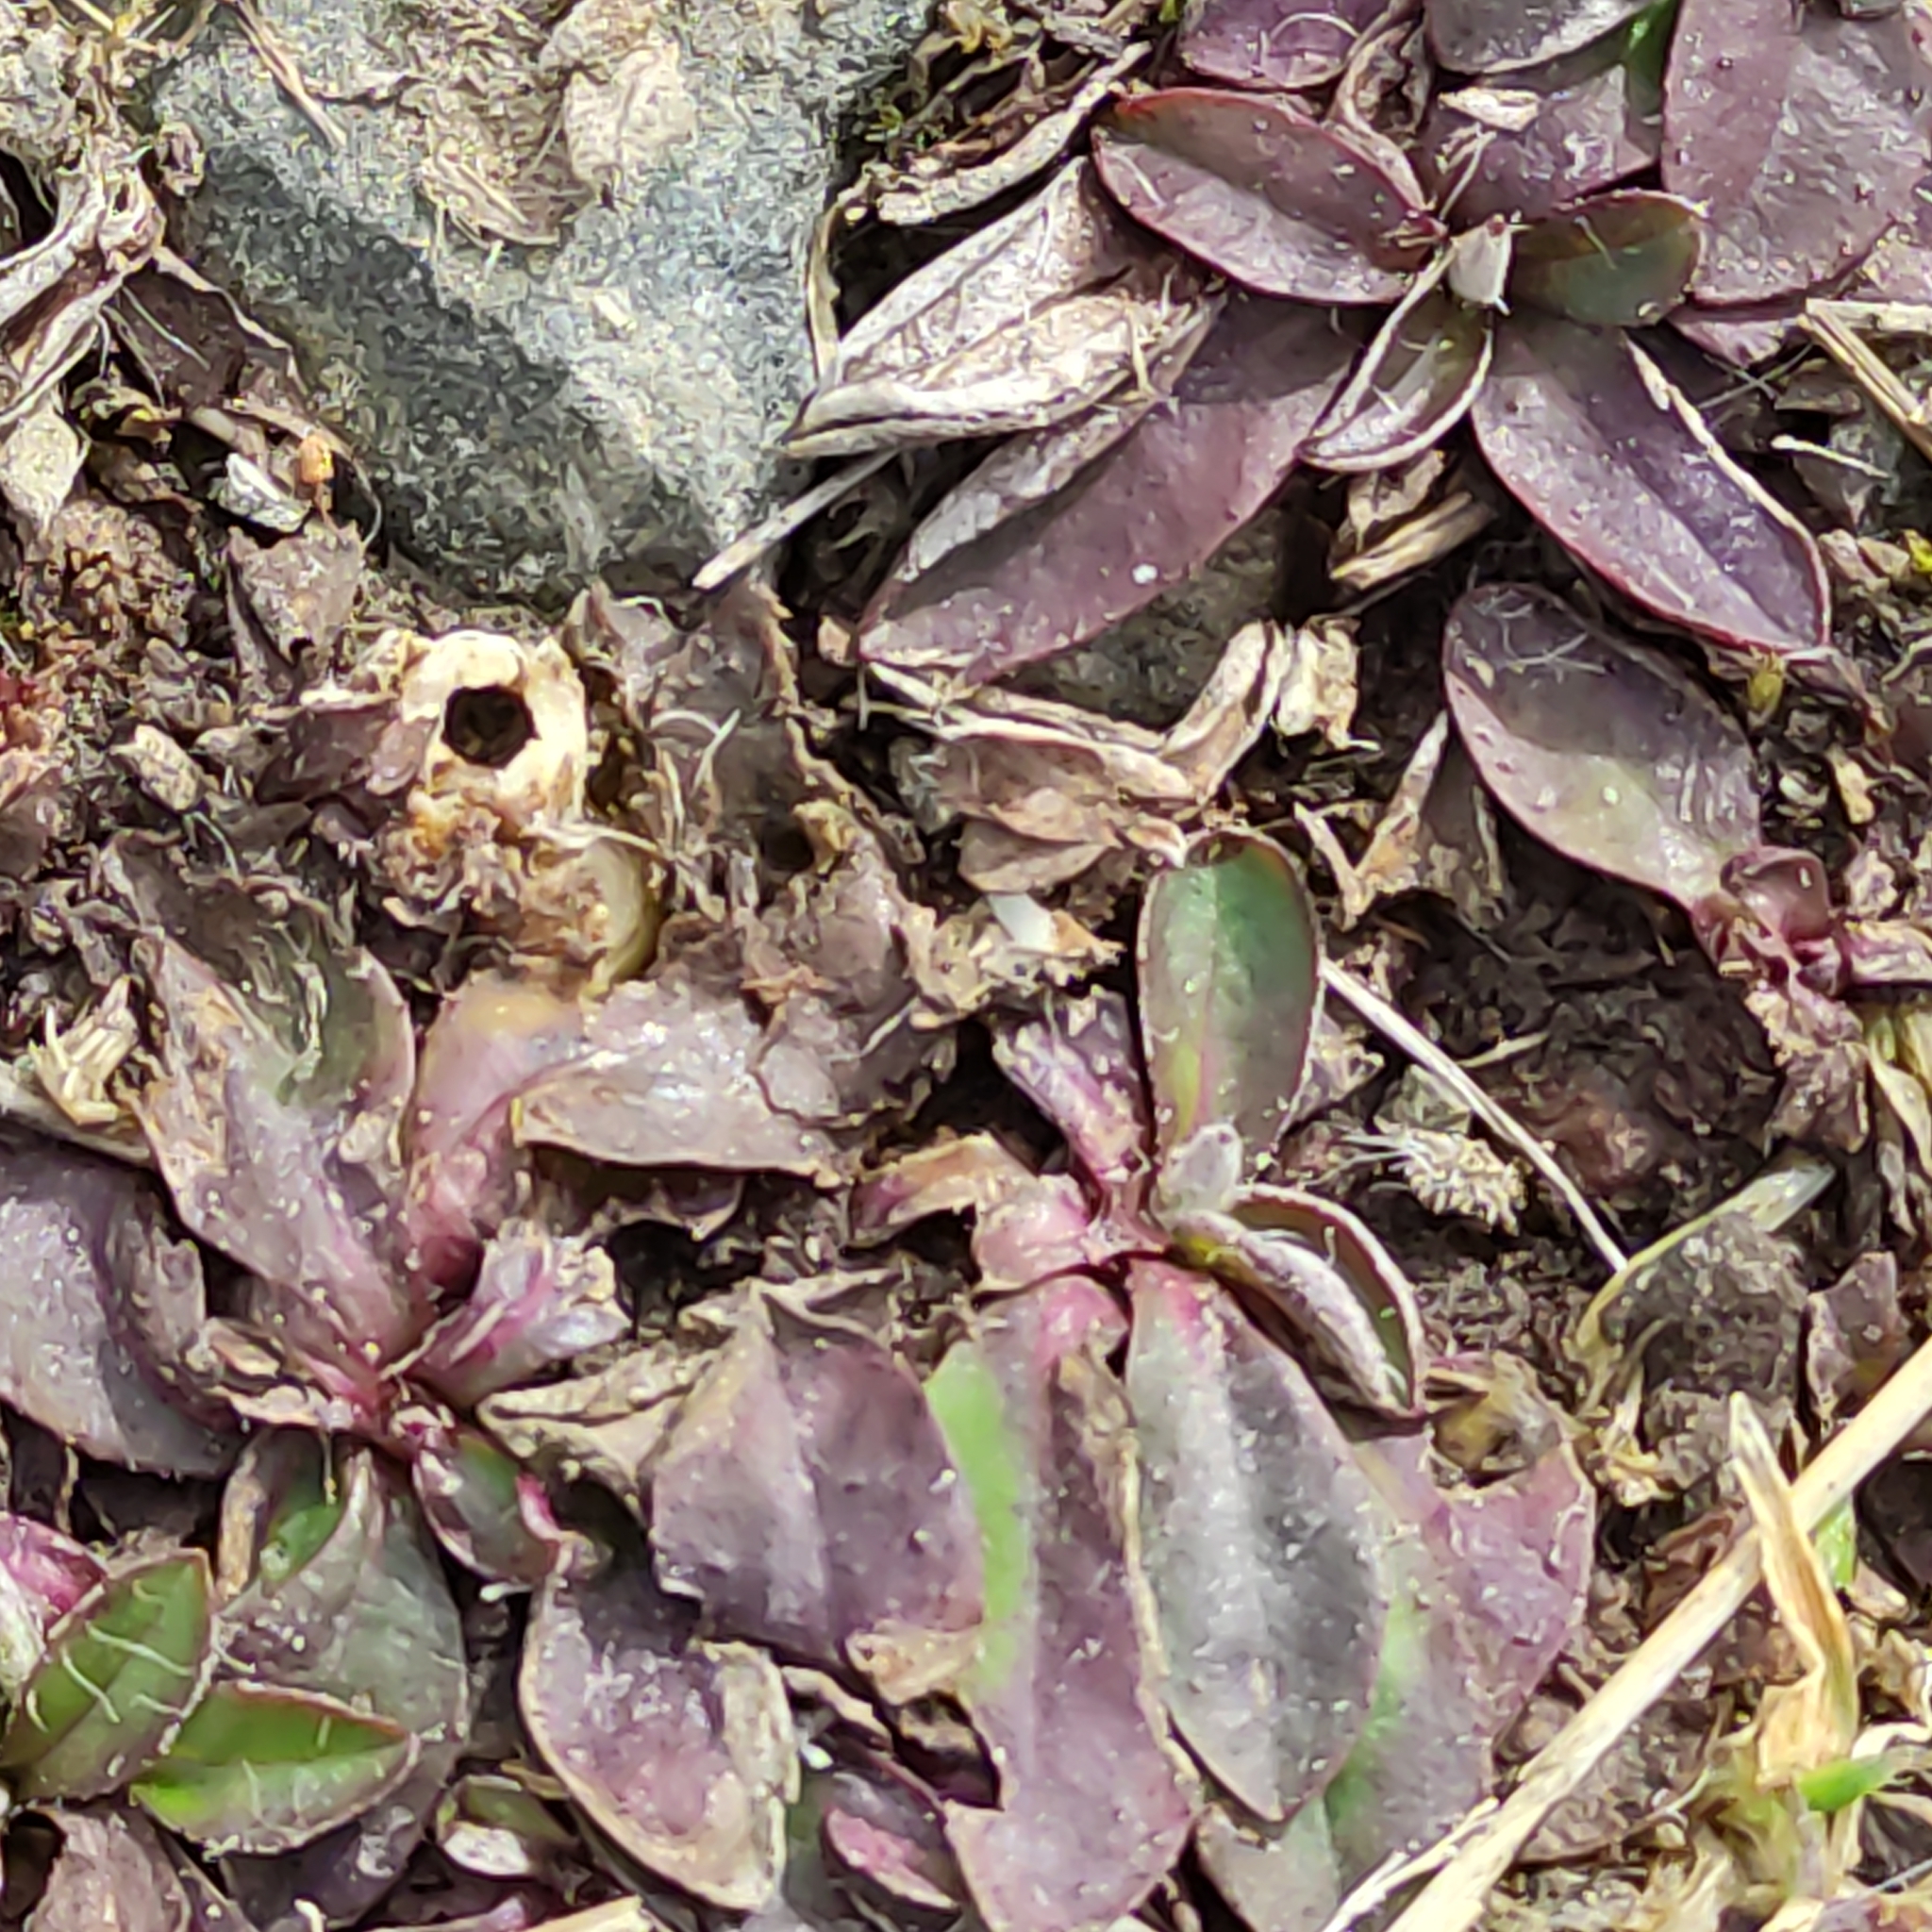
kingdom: Plantae
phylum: Tracheophyta
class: Magnoliopsida
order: Asterales
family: Asteraceae
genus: Pilosella
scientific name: Pilosella officinarum
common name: Mouse-ear hawkweed
